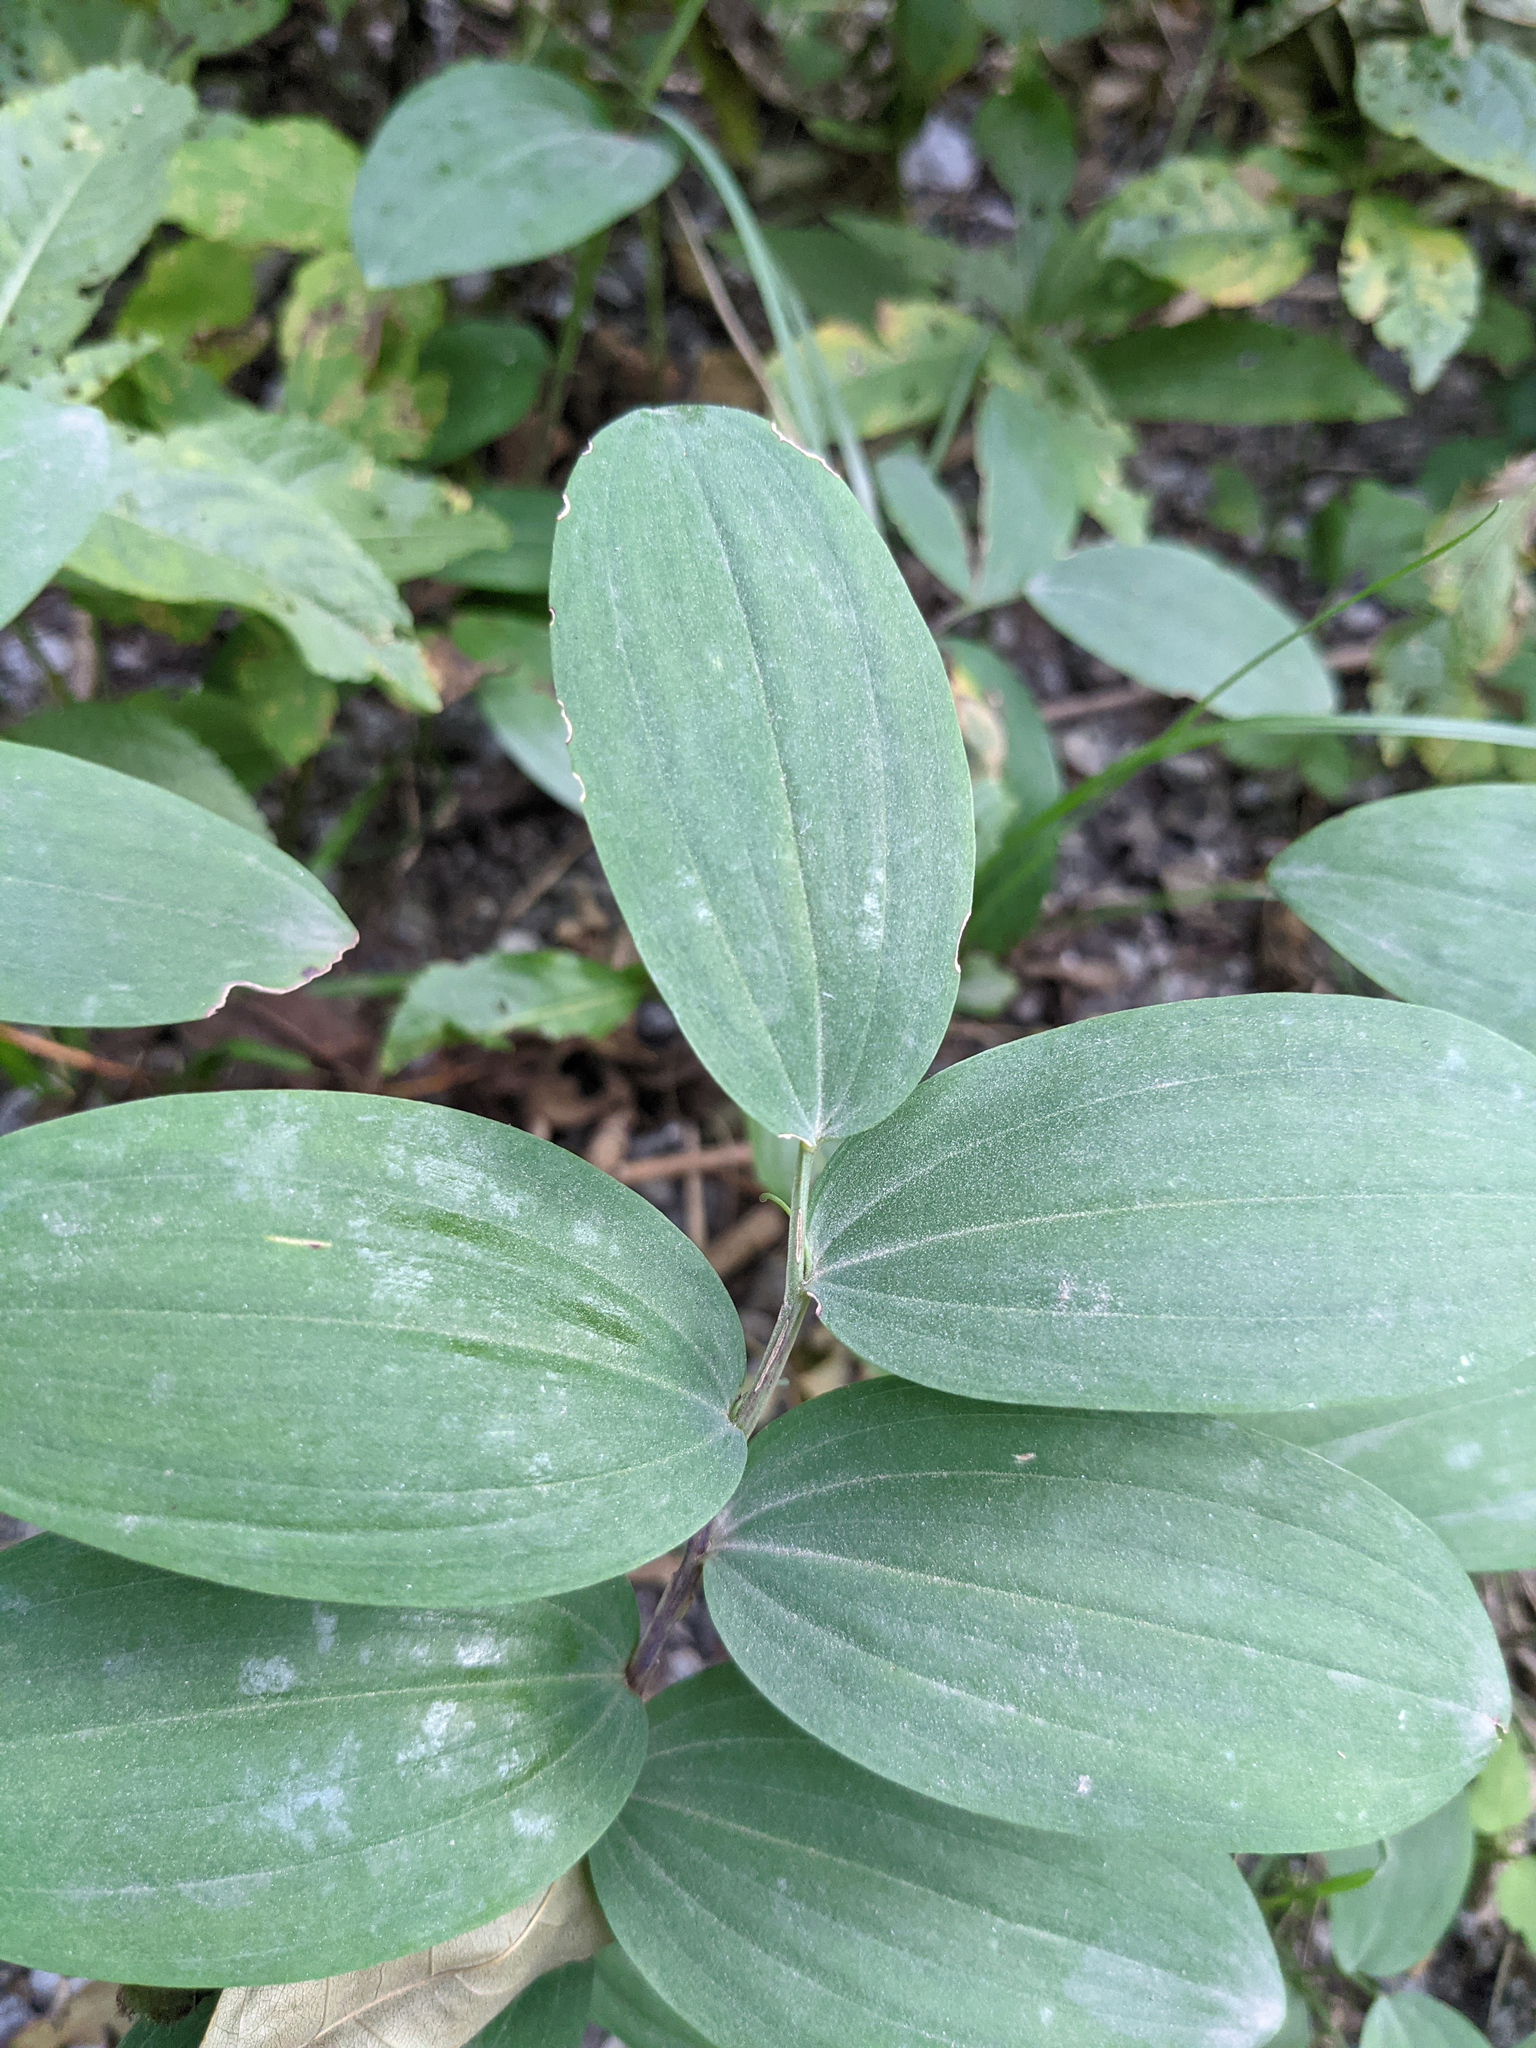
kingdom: Plantae
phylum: Tracheophyta
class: Liliopsida
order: Asparagales
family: Asparagaceae
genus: Polygonatum
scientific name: Polygonatum odoratum
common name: Angular solomon's-seal
